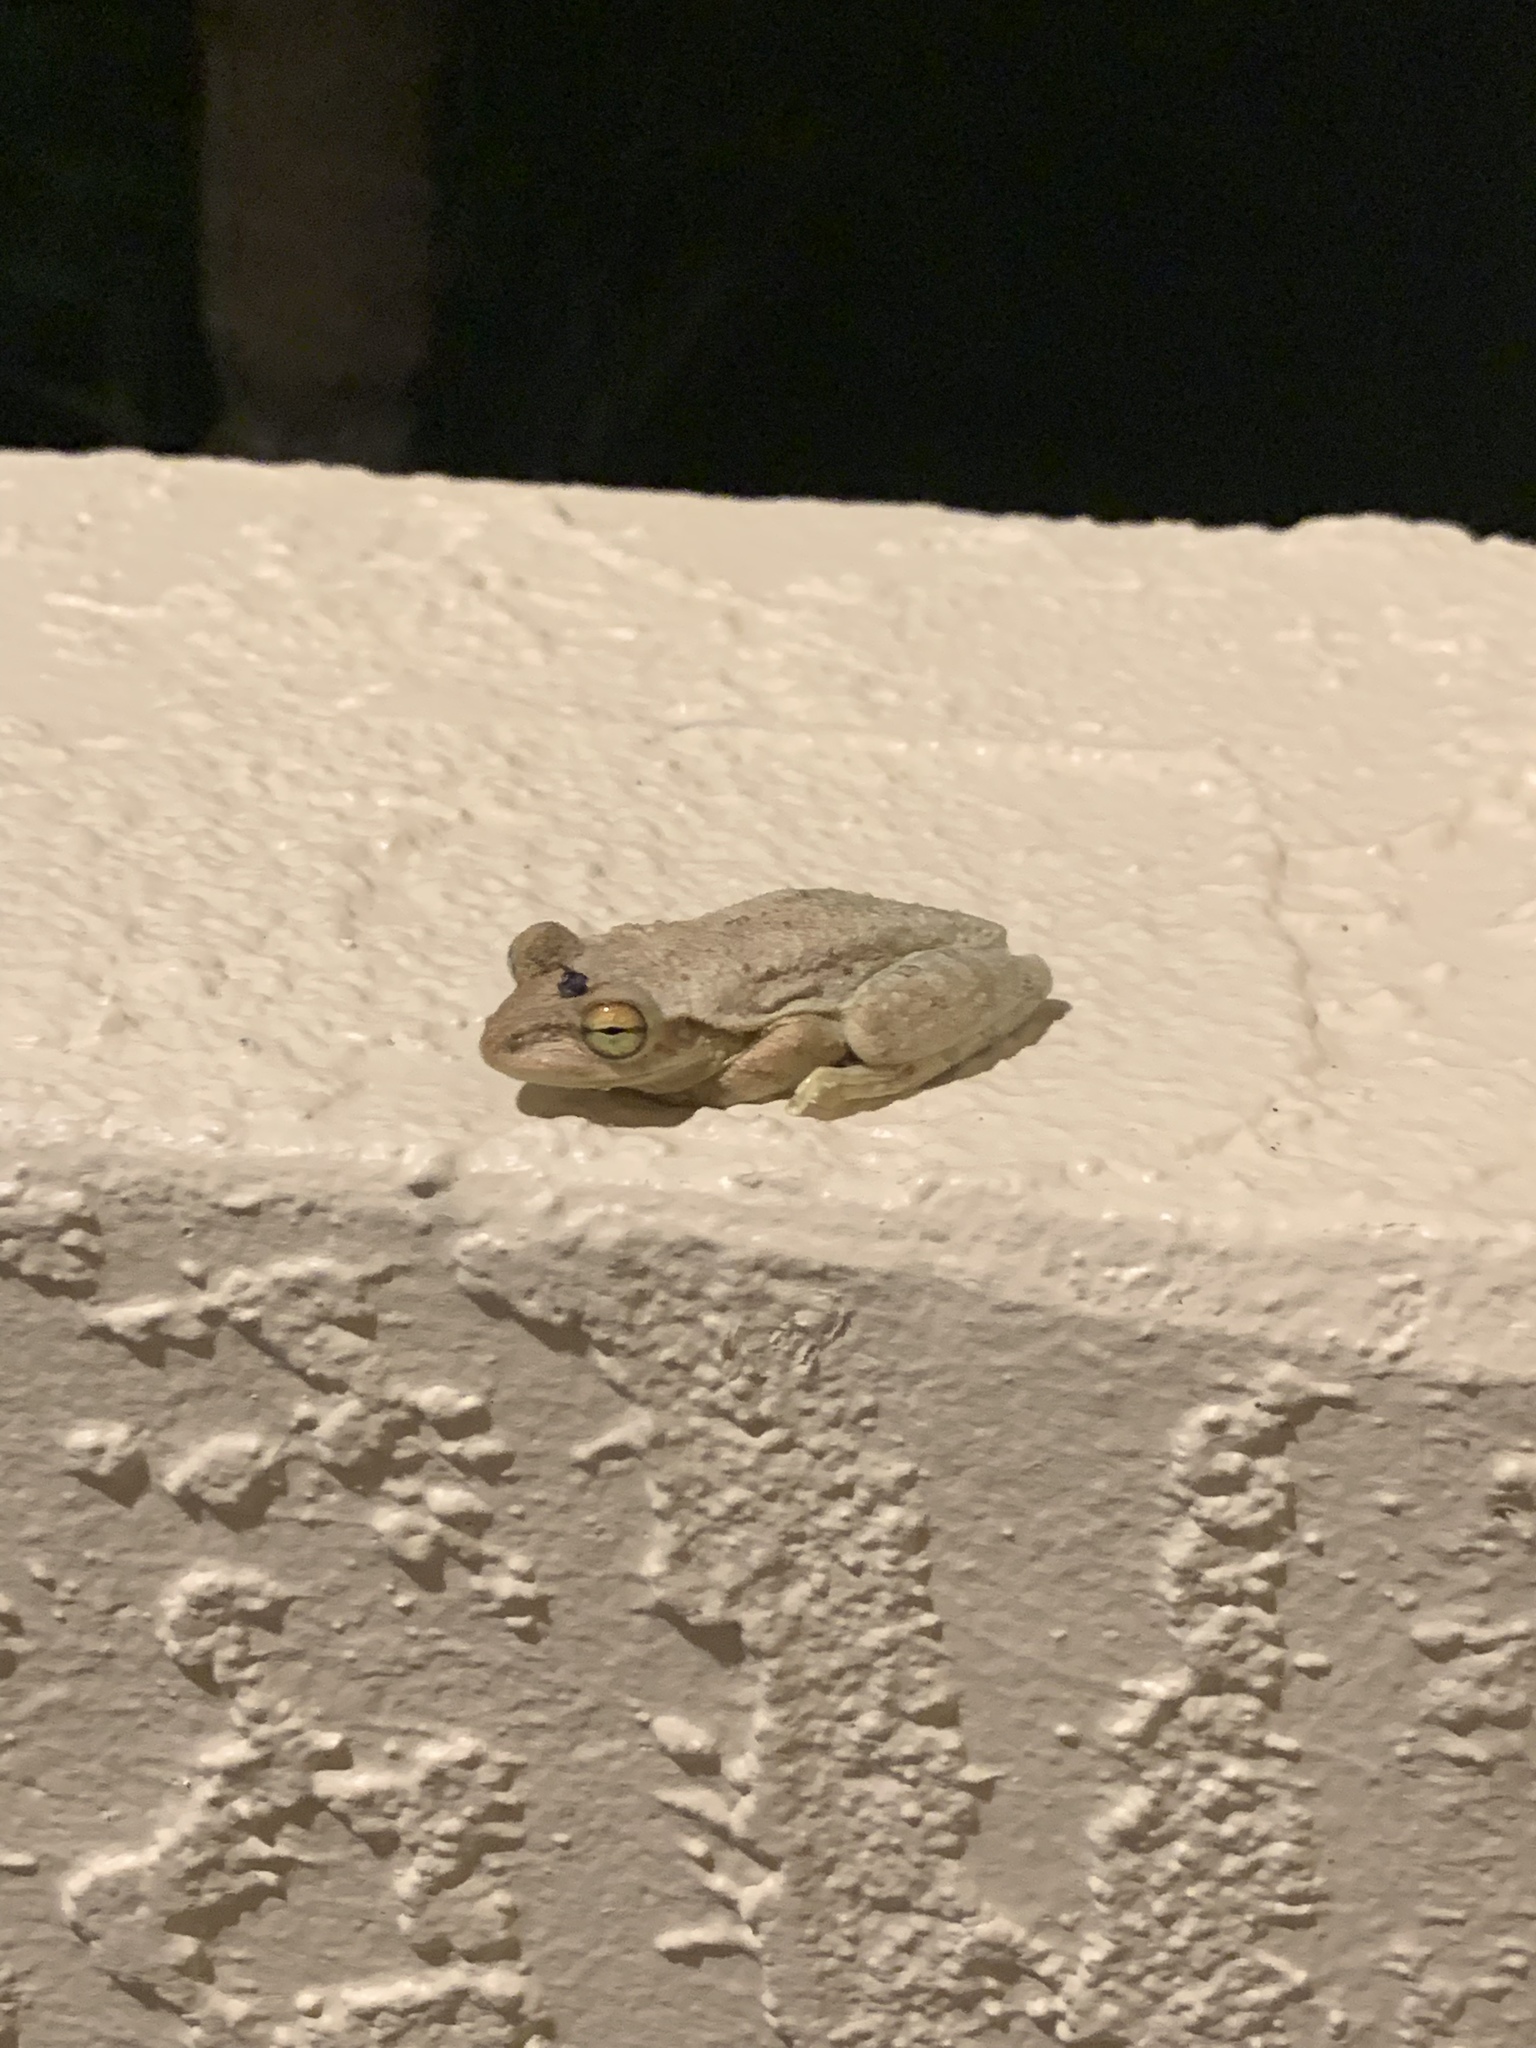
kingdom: Animalia
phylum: Chordata
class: Amphibia
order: Anura
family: Hylidae
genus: Osteopilus
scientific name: Osteopilus septentrionalis
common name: Cuban treefrog
